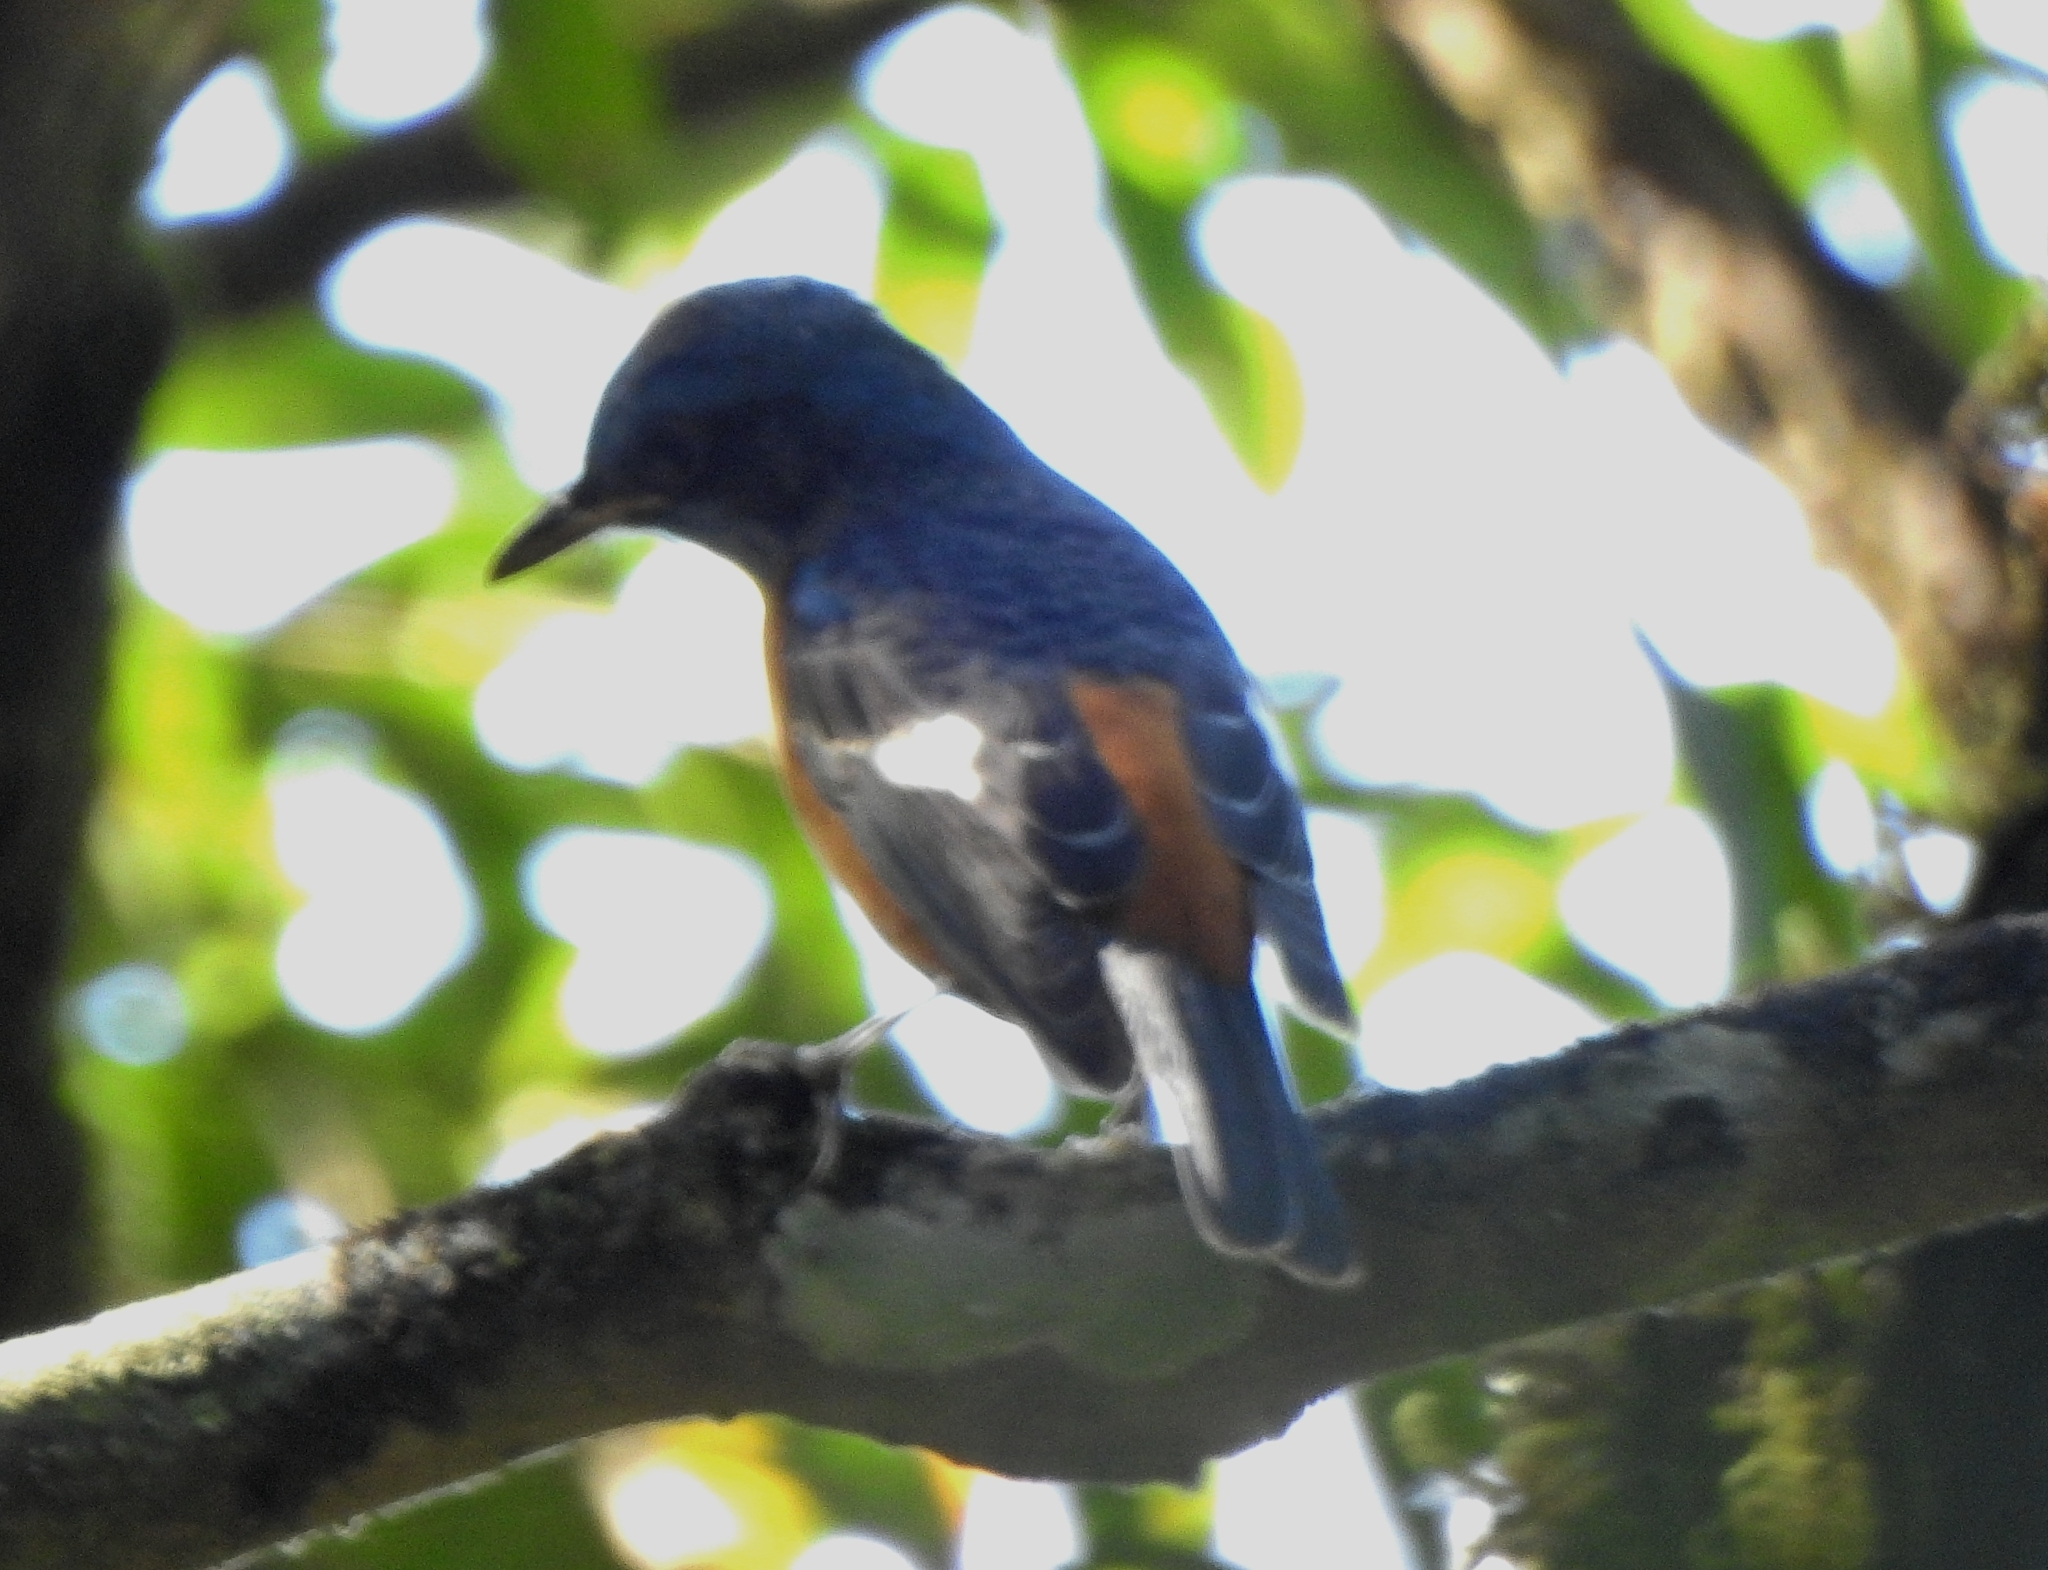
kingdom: Animalia
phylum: Chordata
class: Aves
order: Passeriformes
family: Muscicapidae
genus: Monticola
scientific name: Monticola cinclorhynchus
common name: Blue-capped rock thrush
